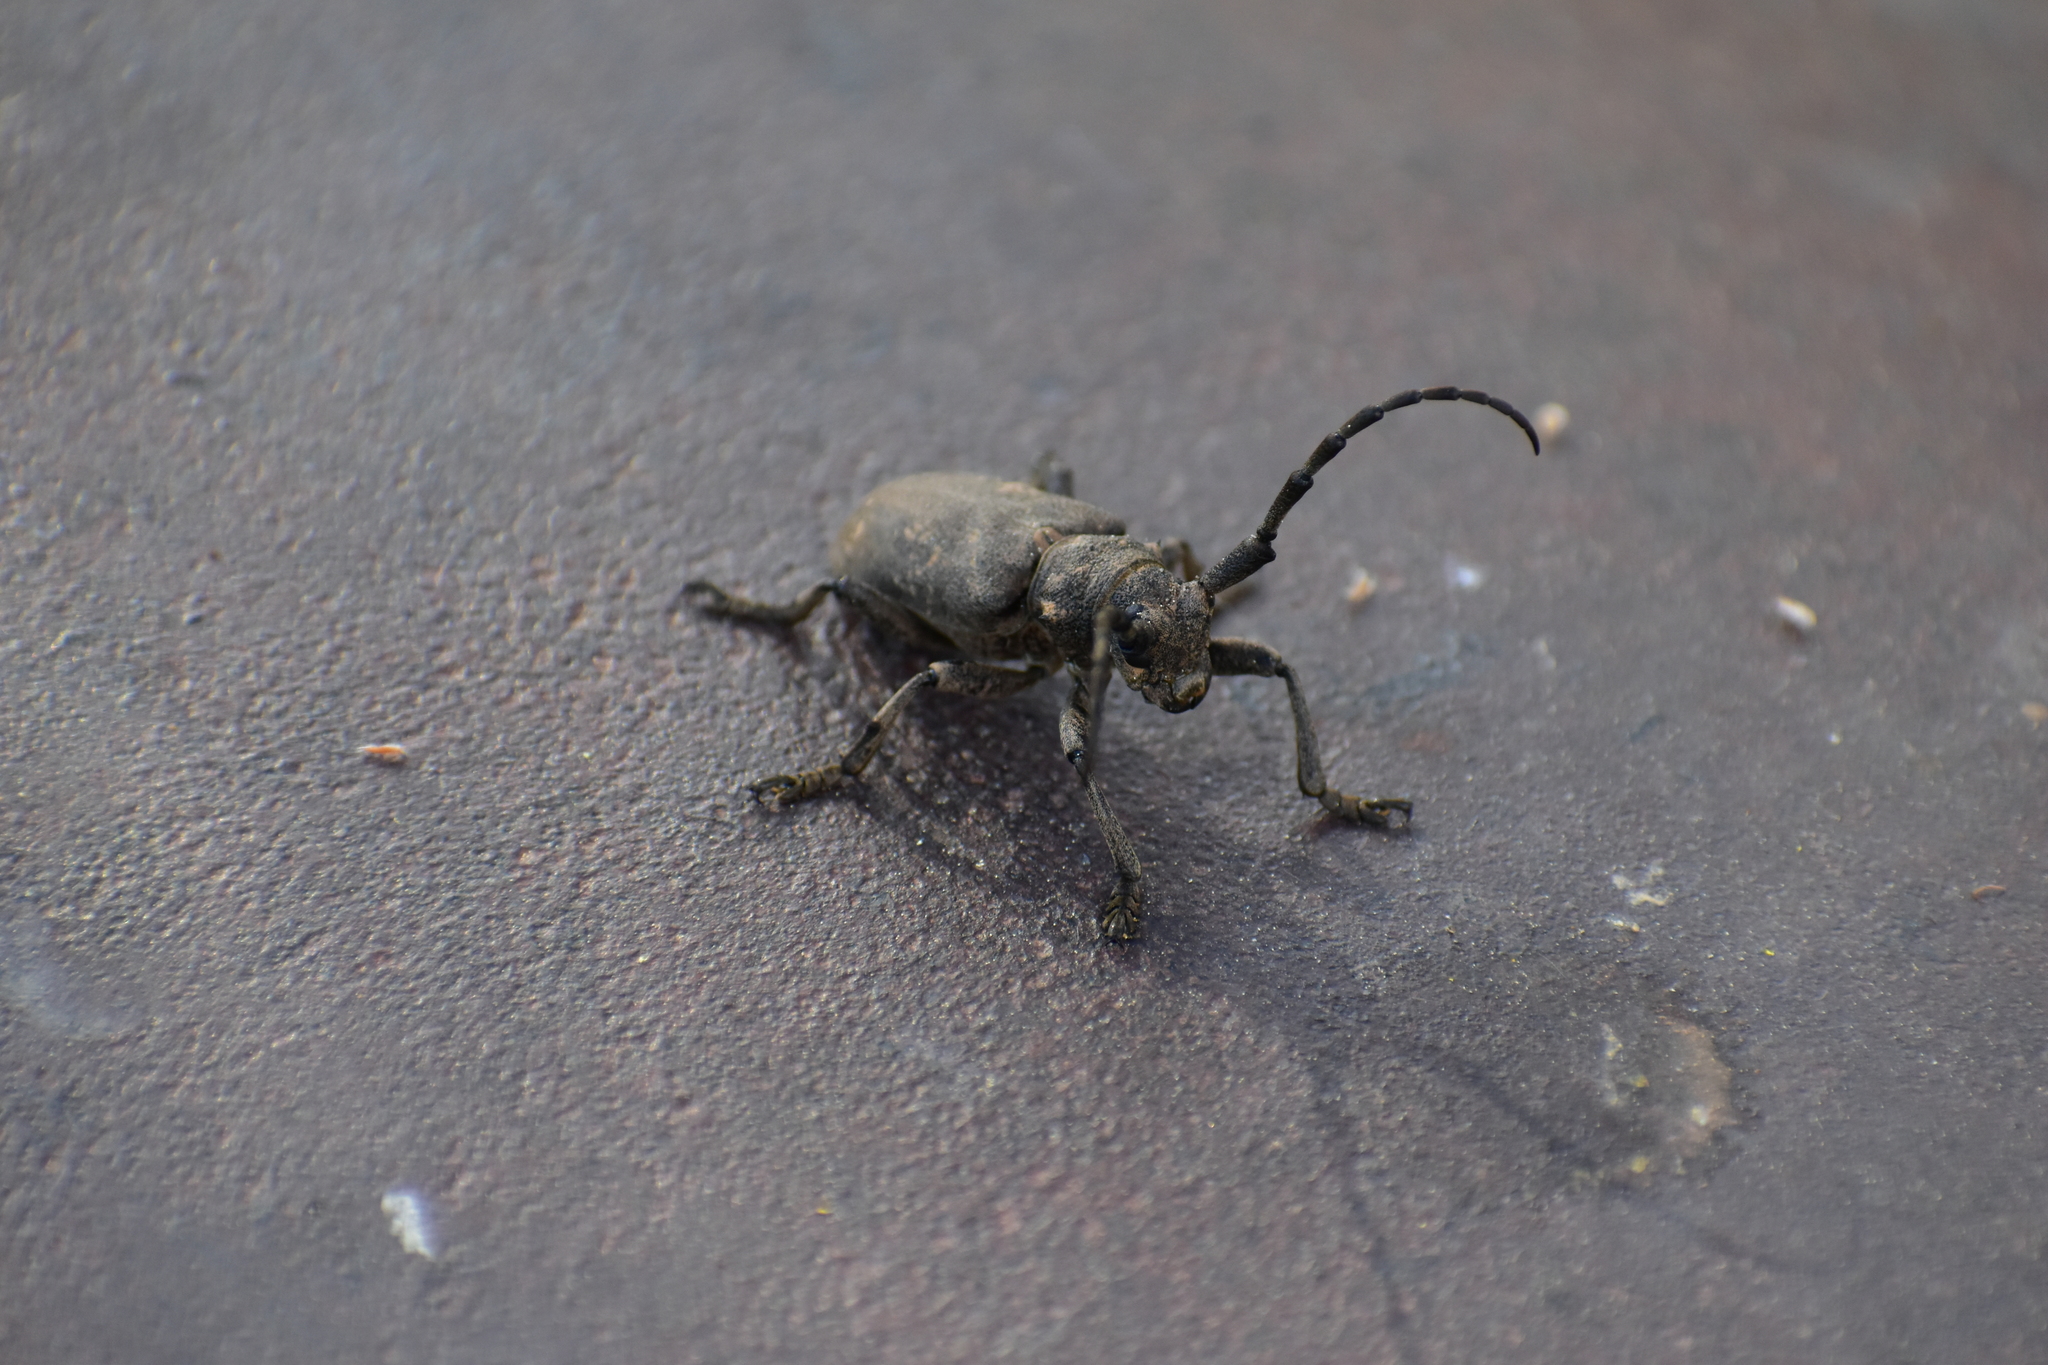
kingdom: Animalia
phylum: Arthropoda
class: Insecta
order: Coleoptera
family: Cerambycidae
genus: Lamia
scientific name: Lamia textor
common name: Weaver beetle
